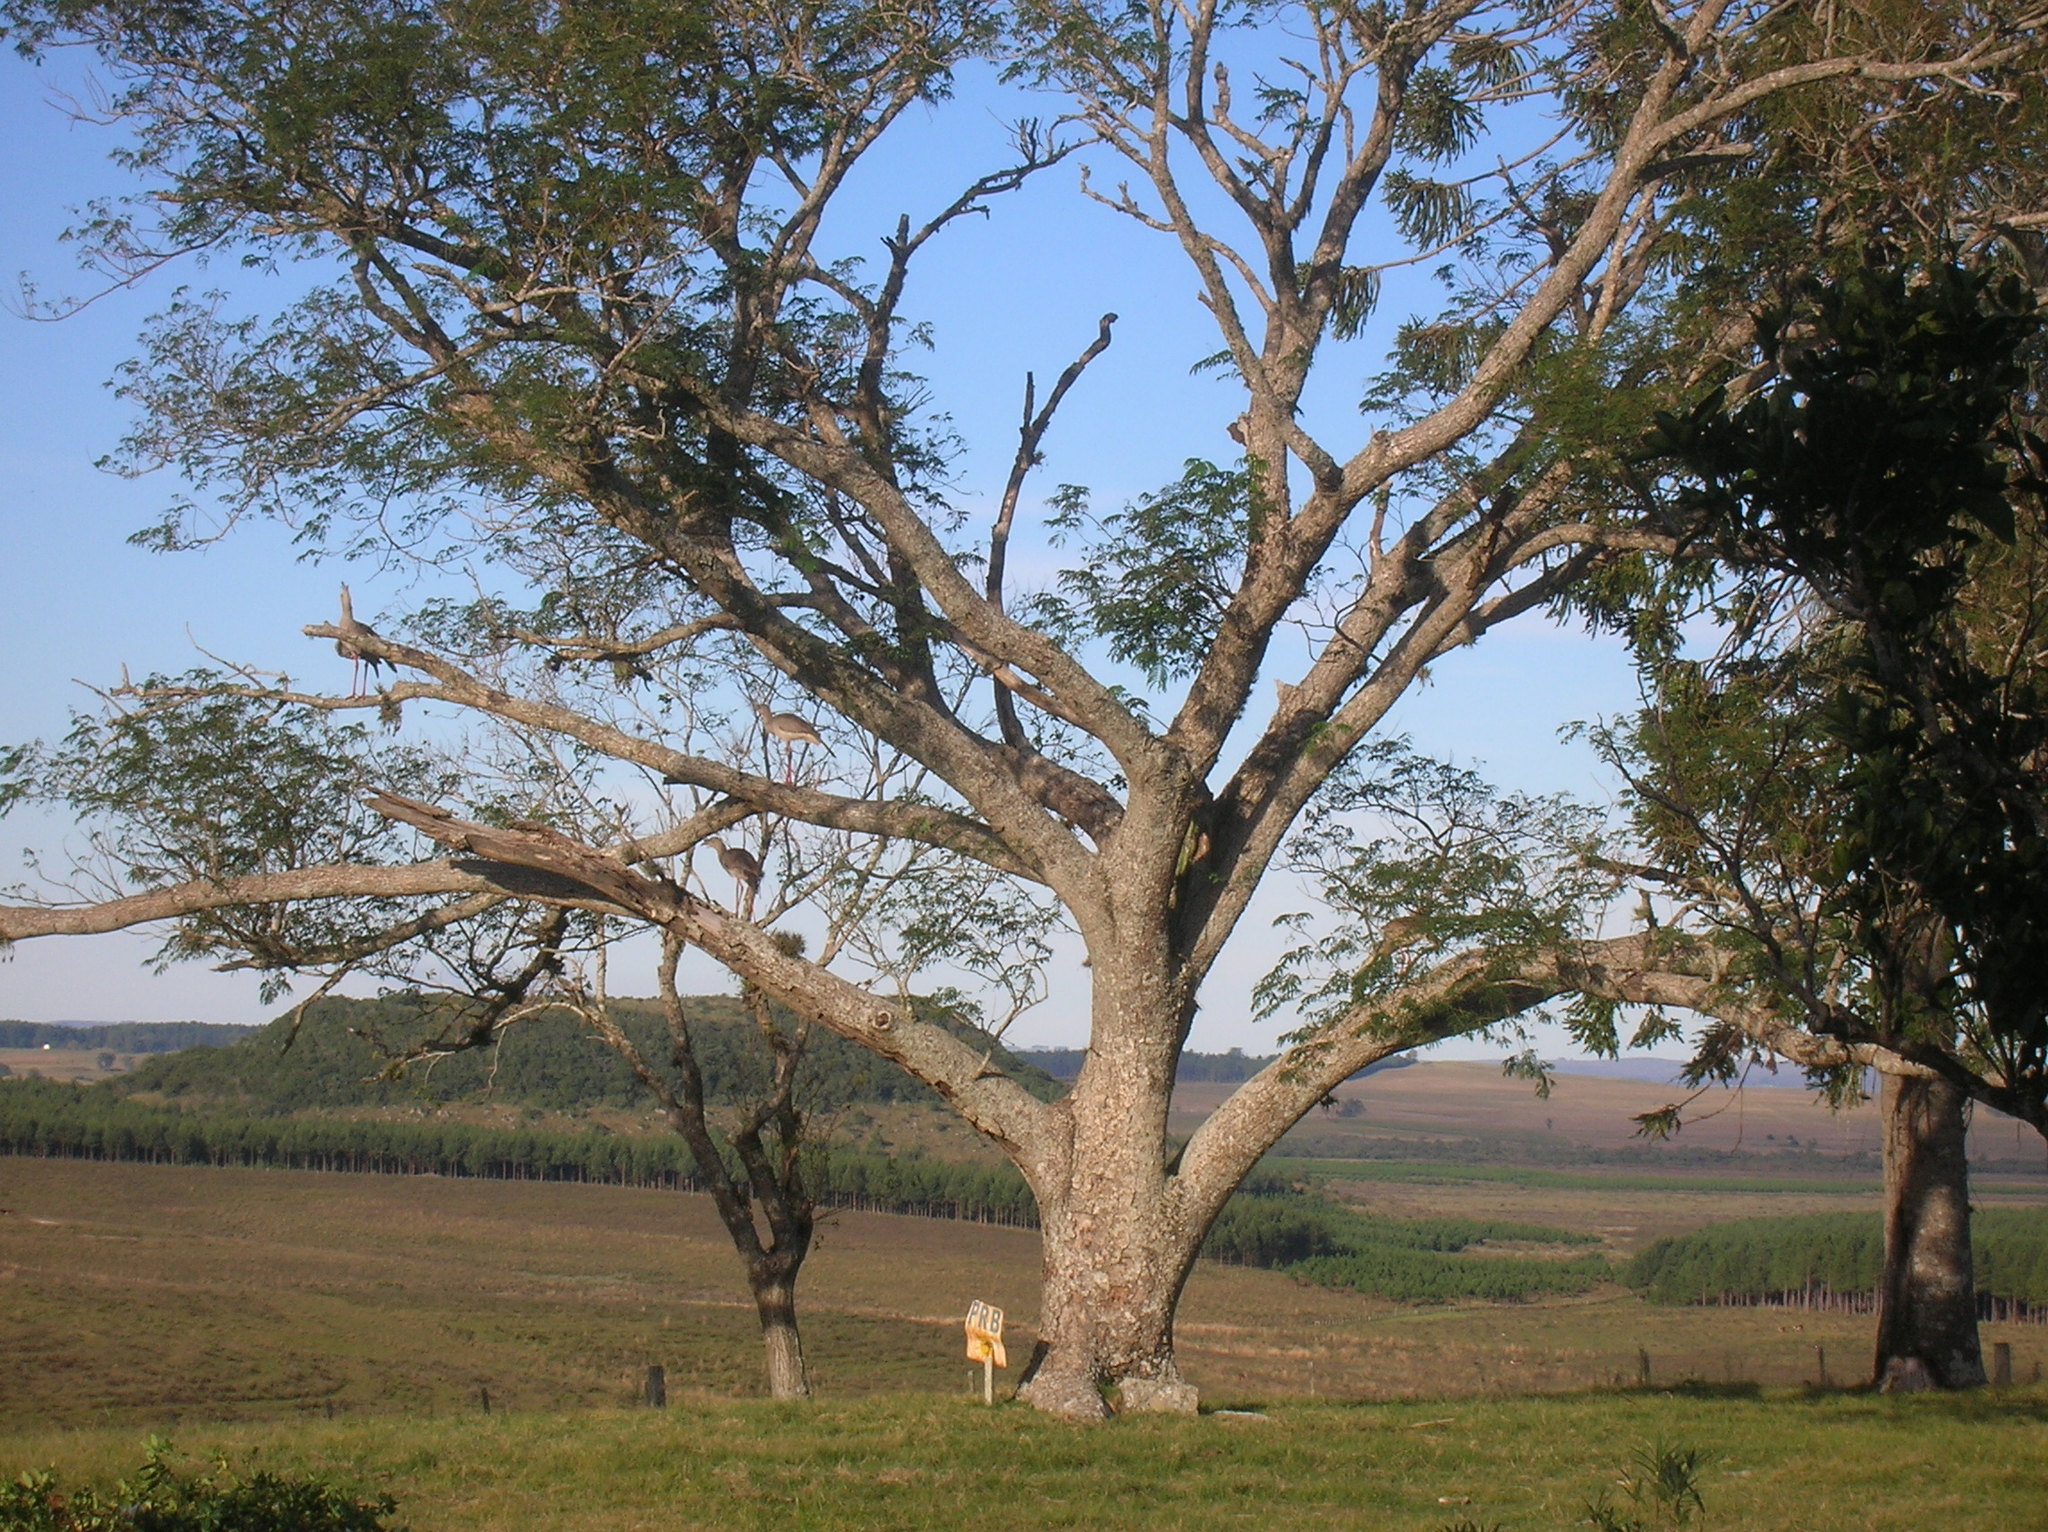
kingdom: Animalia
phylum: Chordata
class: Aves
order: Cariamiformes
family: Cariamidae
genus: Cariama
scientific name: Cariama cristata
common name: Red-legged seriema
